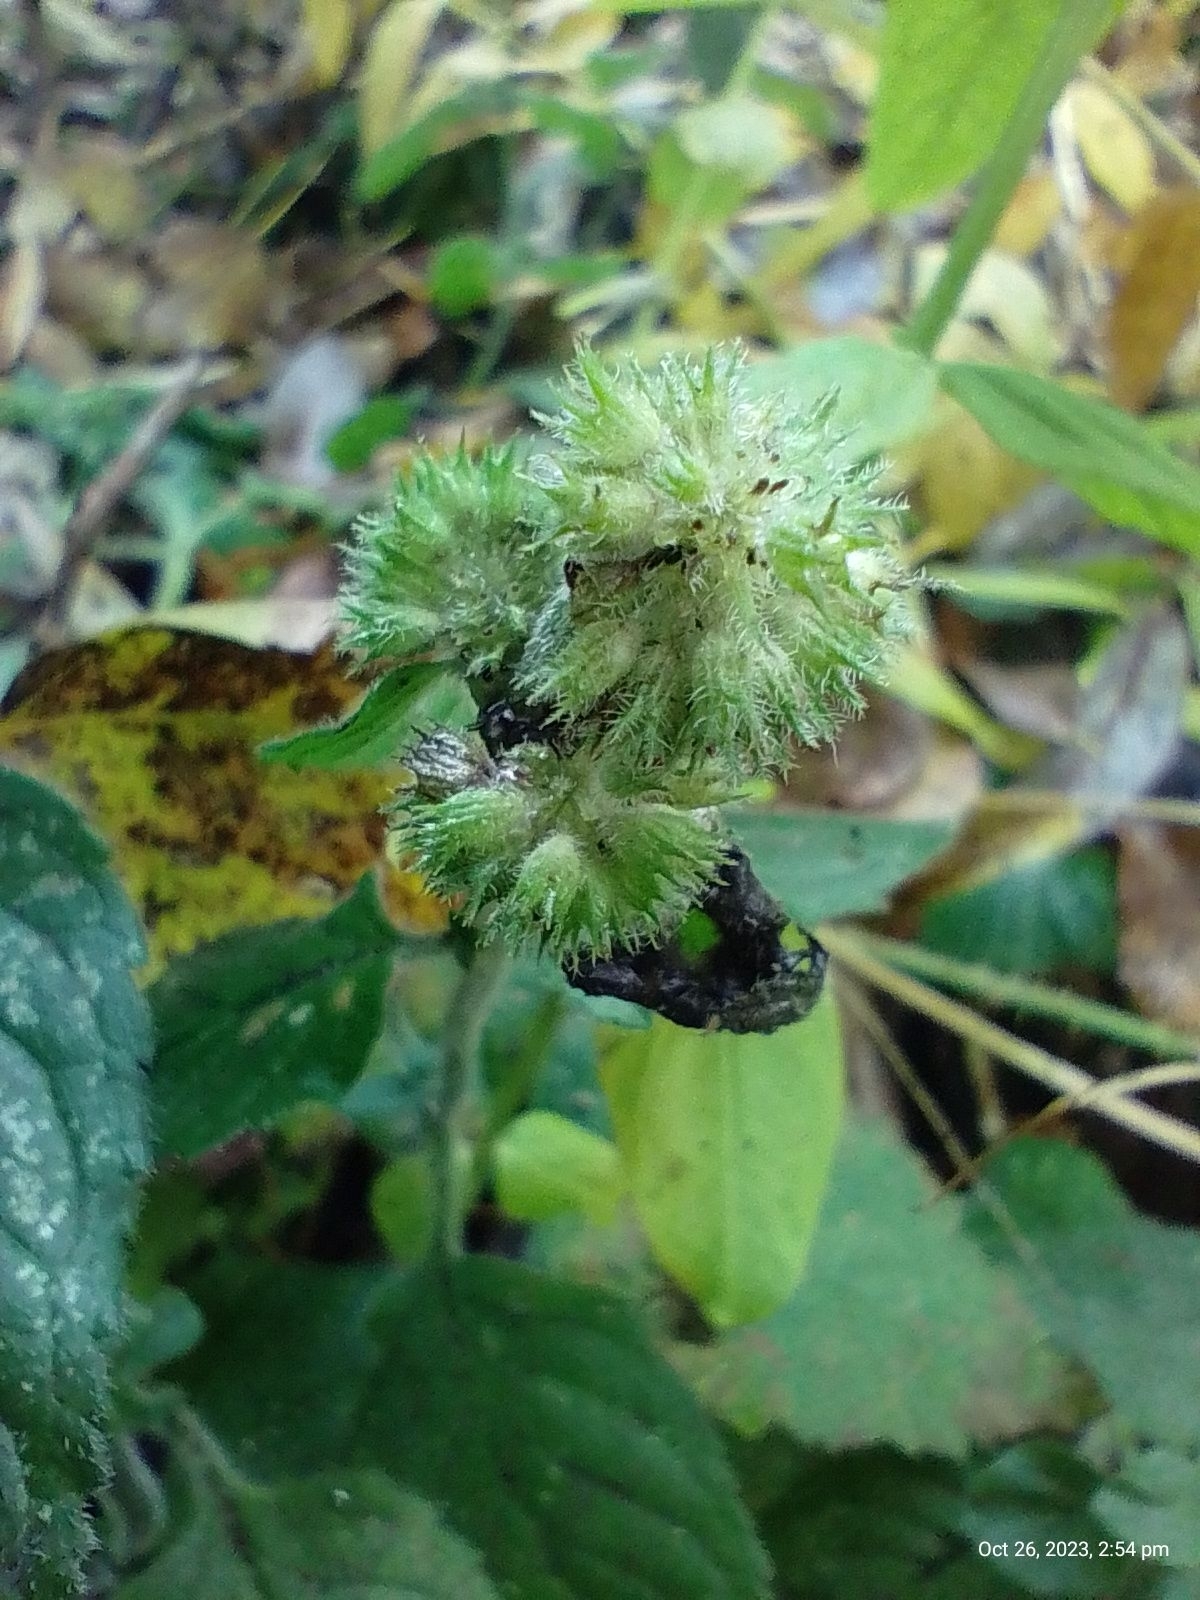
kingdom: Plantae
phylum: Tracheophyta
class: Magnoliopsida
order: Lamiales
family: Lamiaceae
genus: Mentha
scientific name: Mentha aquatica
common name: Water mint
